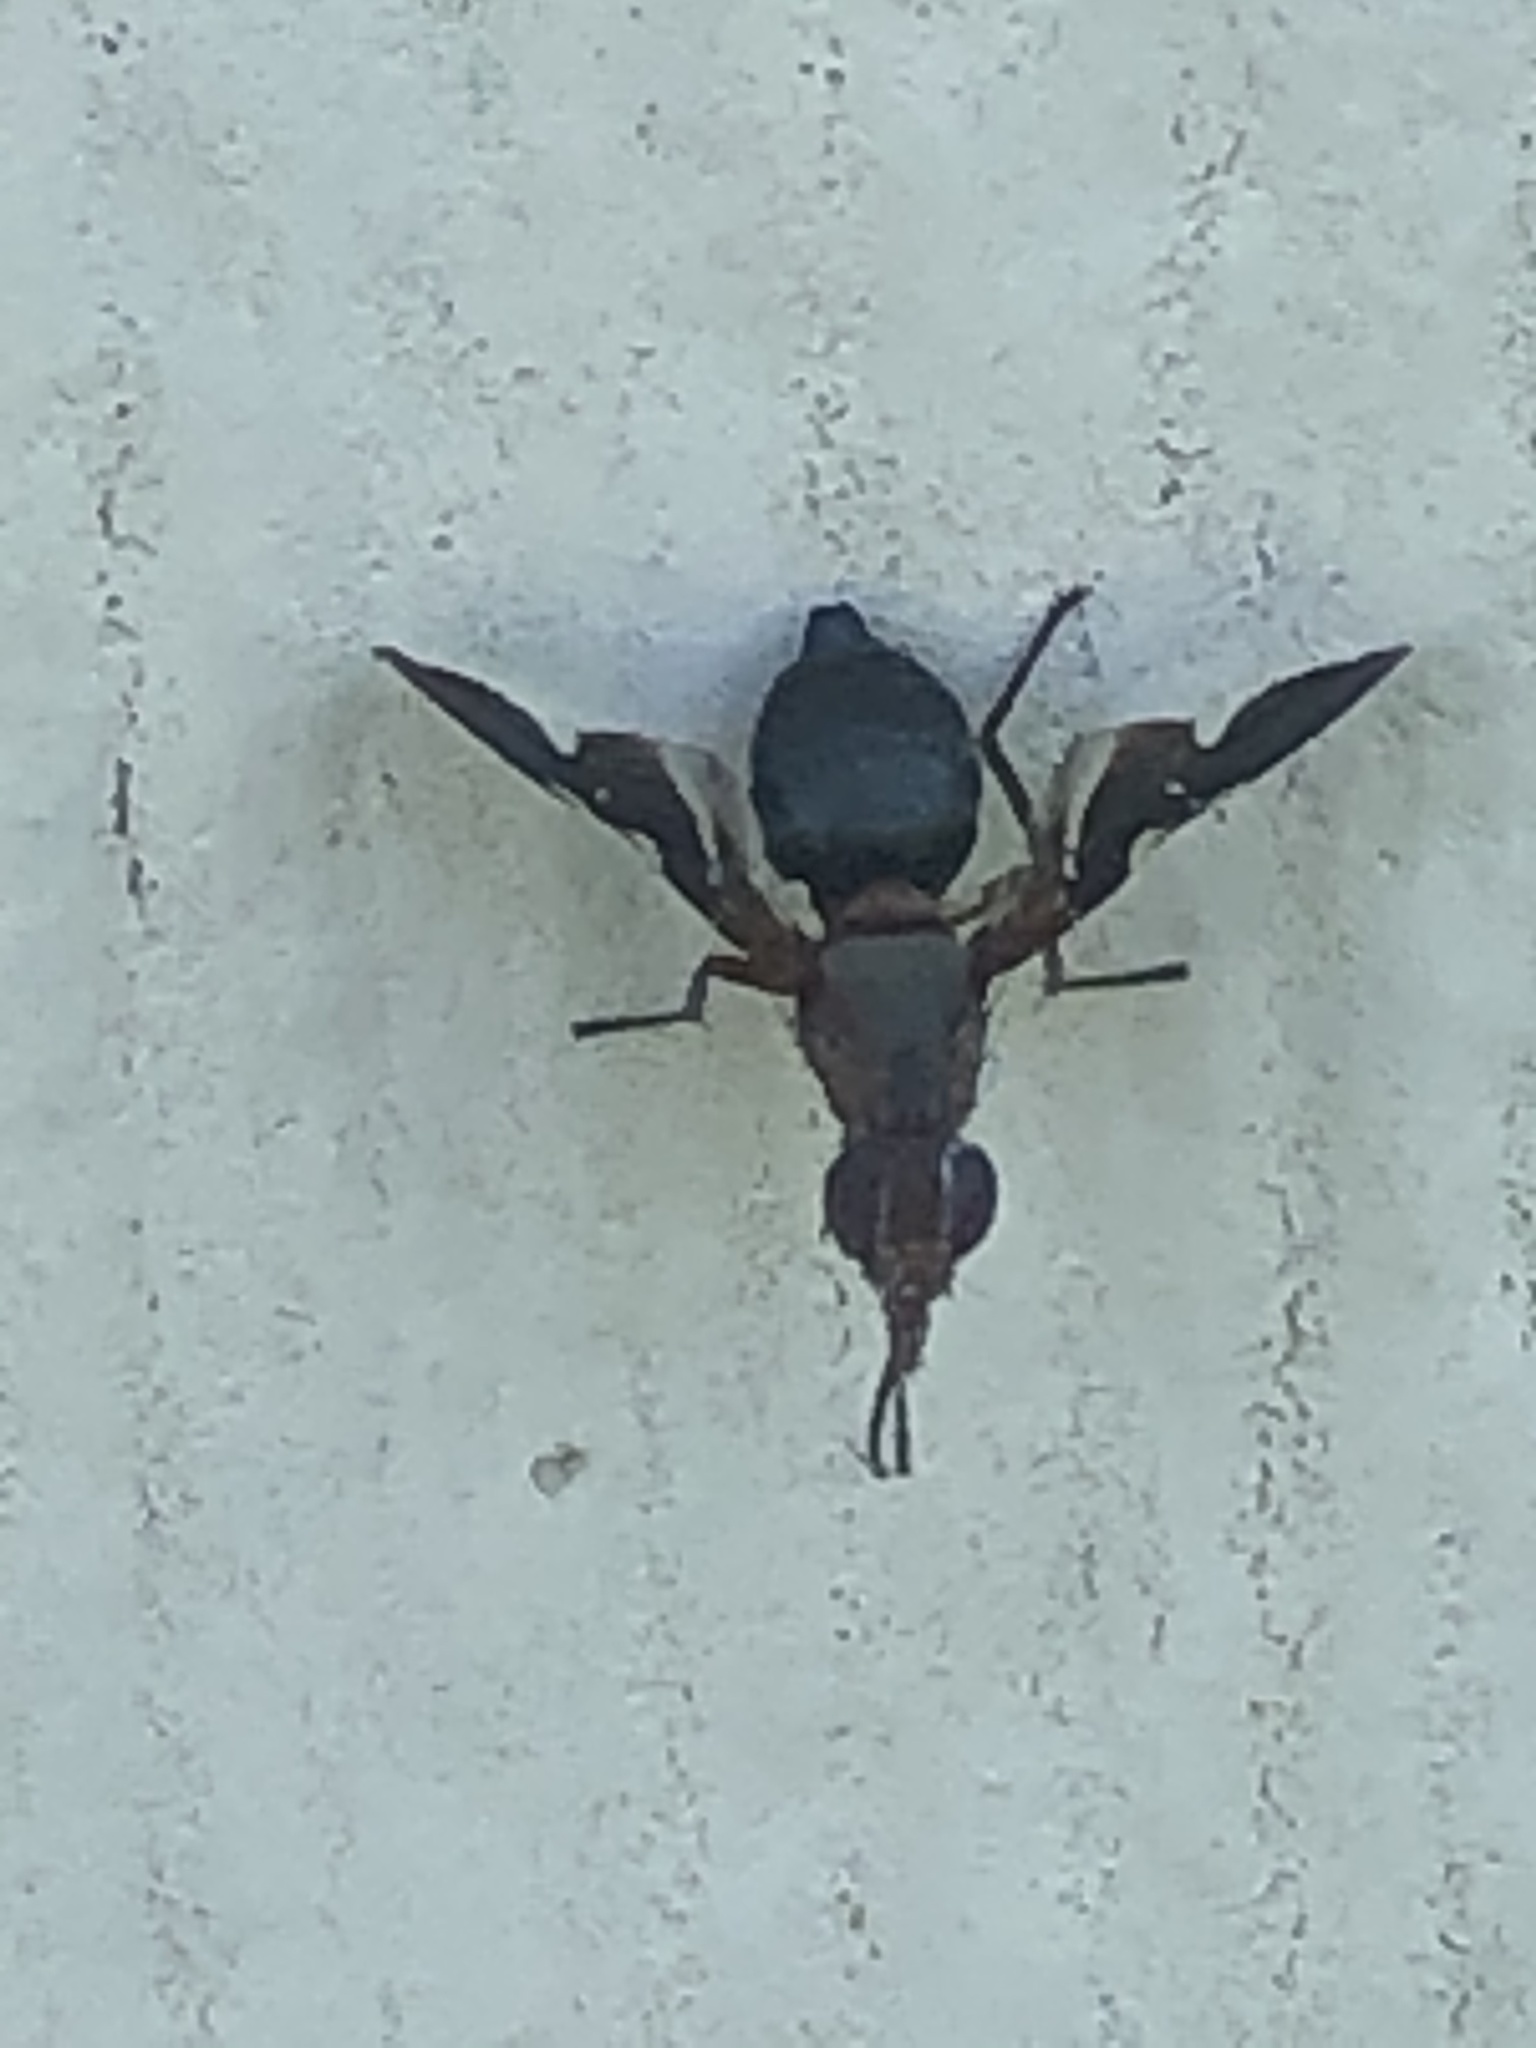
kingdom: Animalia
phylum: Arthropoda
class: Insecta
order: Diptera
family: Ulidiidae
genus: Delphinia
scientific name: Delphinia picta
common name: Common picture-winged fly
